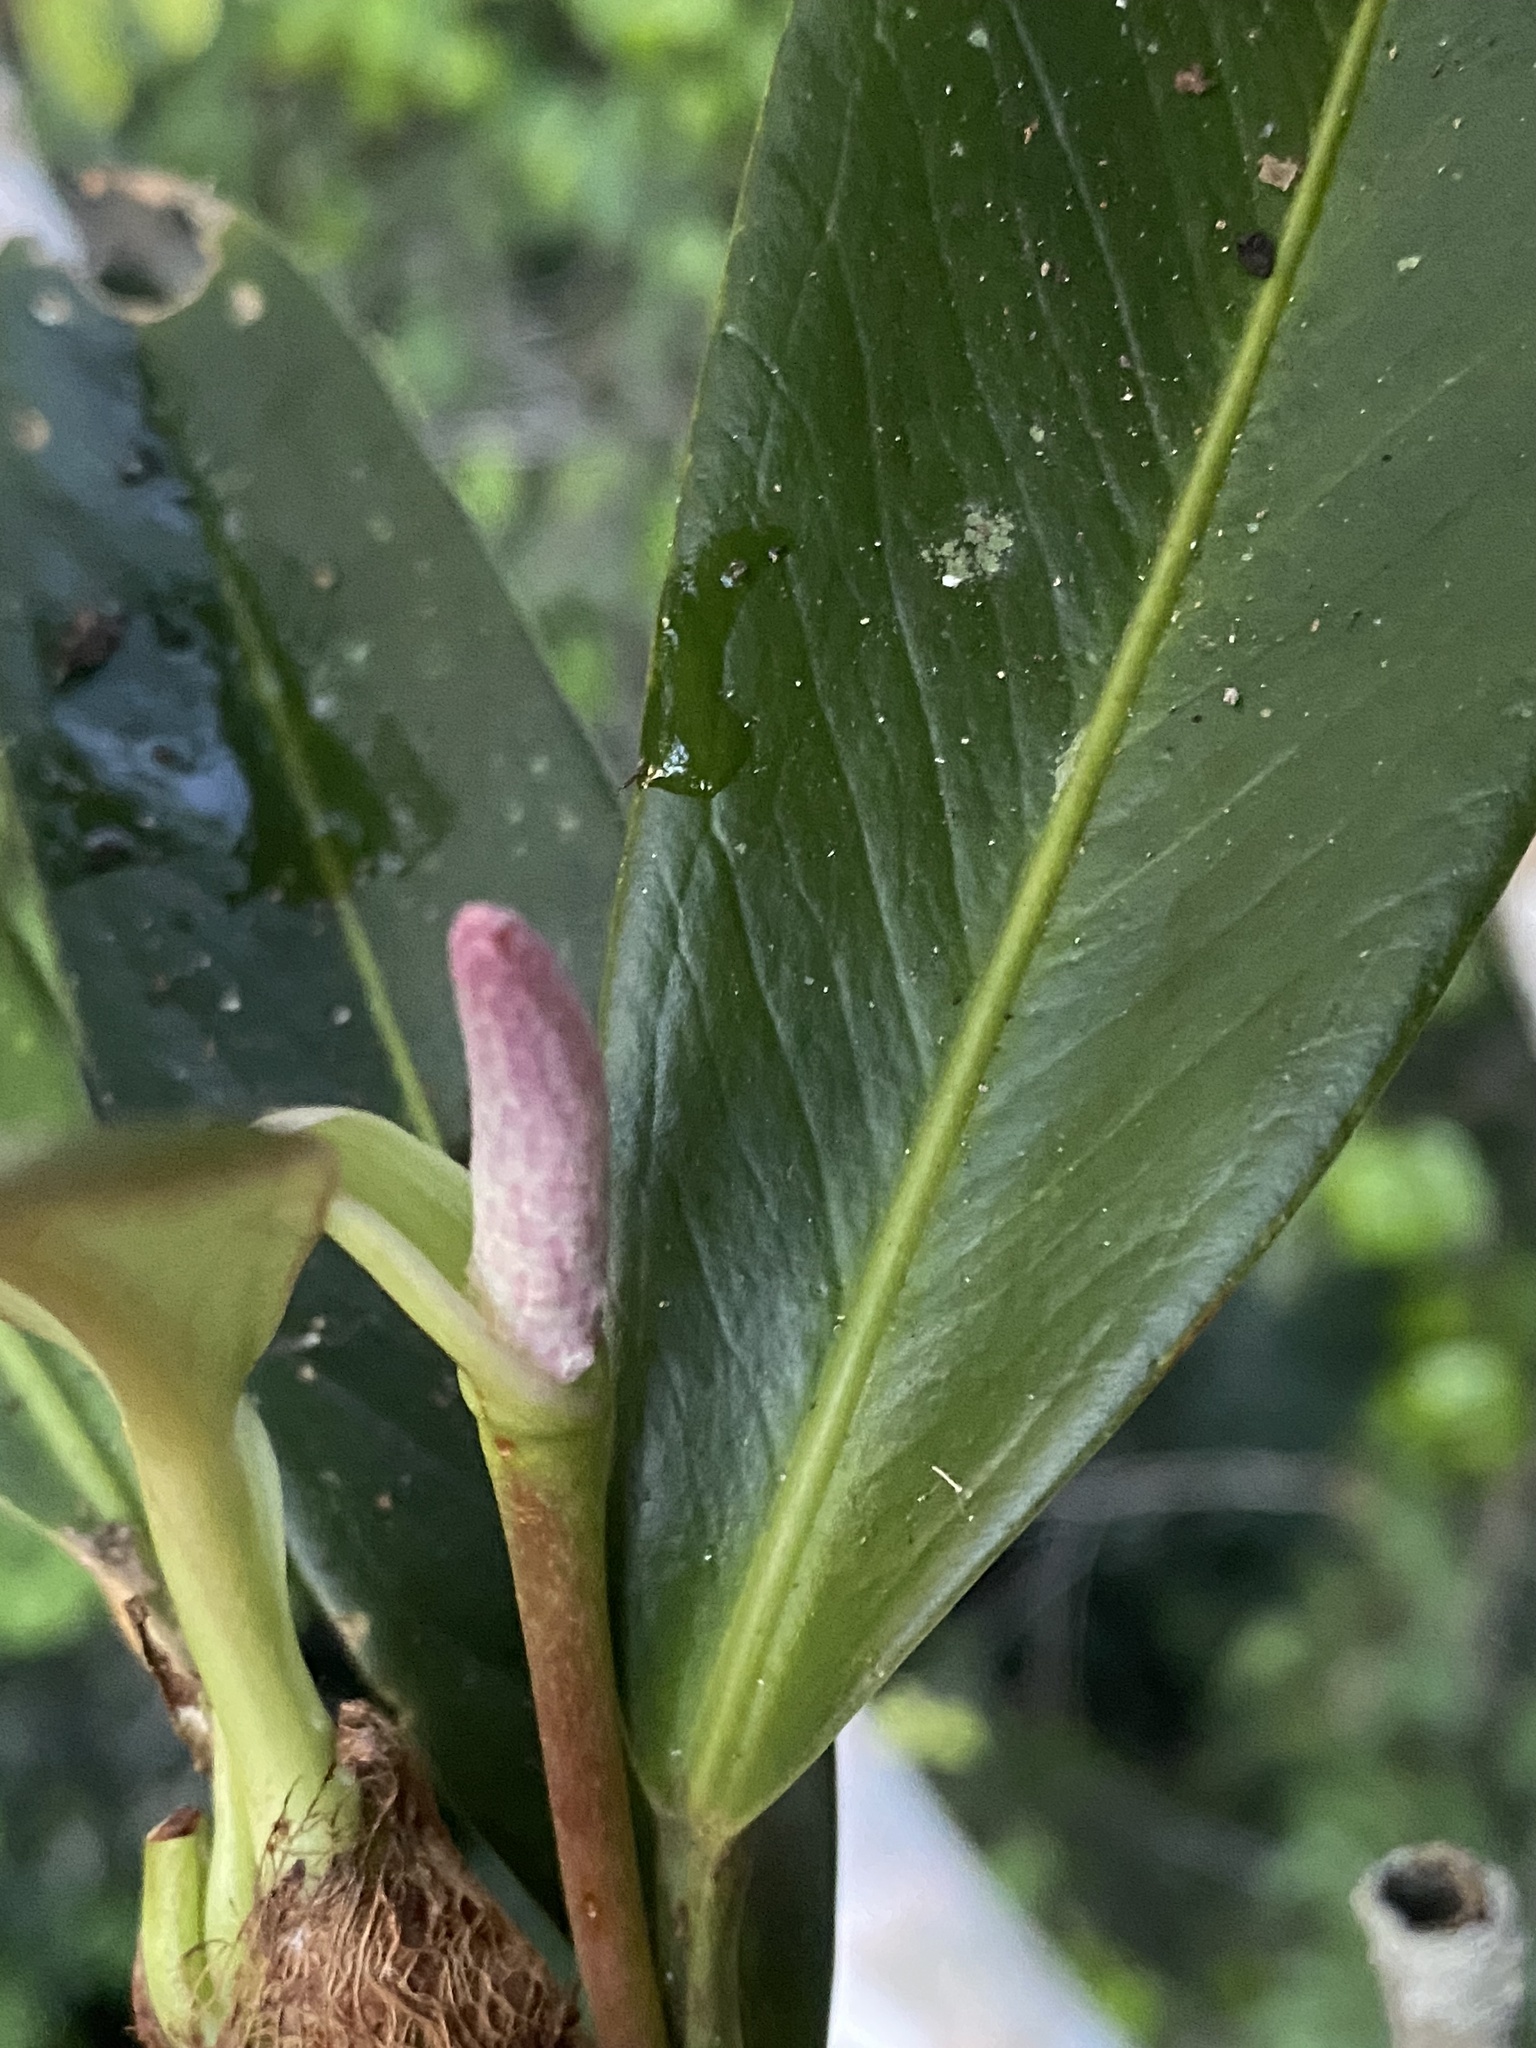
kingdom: Plantae
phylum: Tracheophyta
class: Liliopsida
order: Alismatales
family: Araceae
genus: Anthurium
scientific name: Anthurium obtusum
